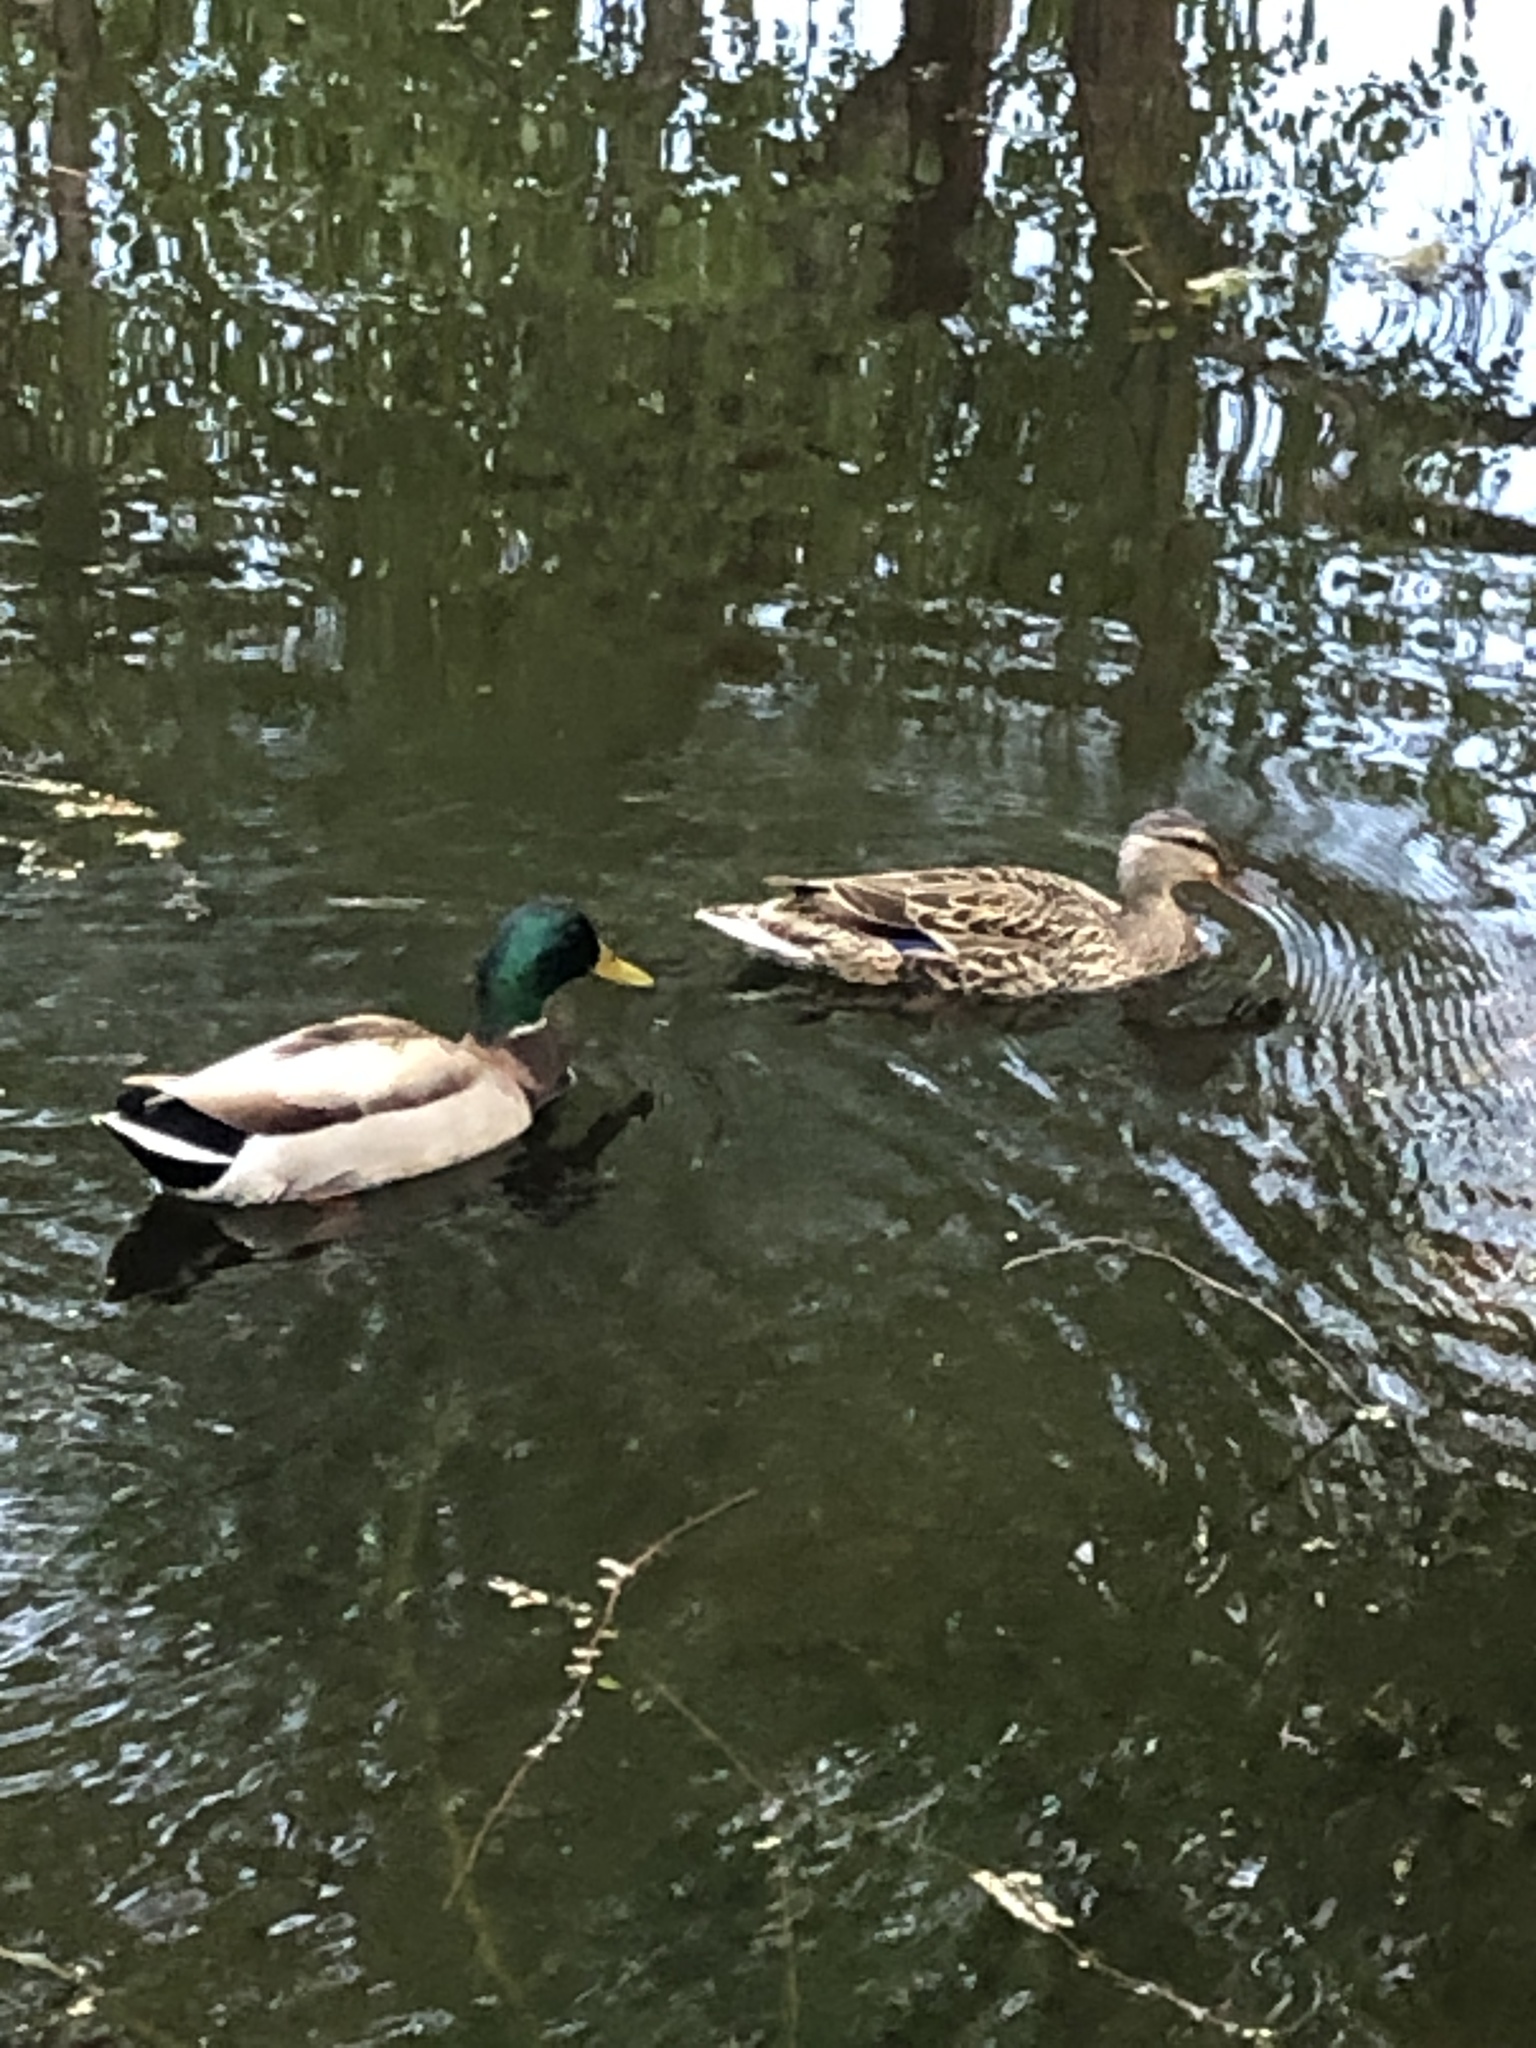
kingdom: Animalia
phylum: Chordata
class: Aves
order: Anseriformes
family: Anatidae
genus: Anas
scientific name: Anas platyrhynchos
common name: Mallard
